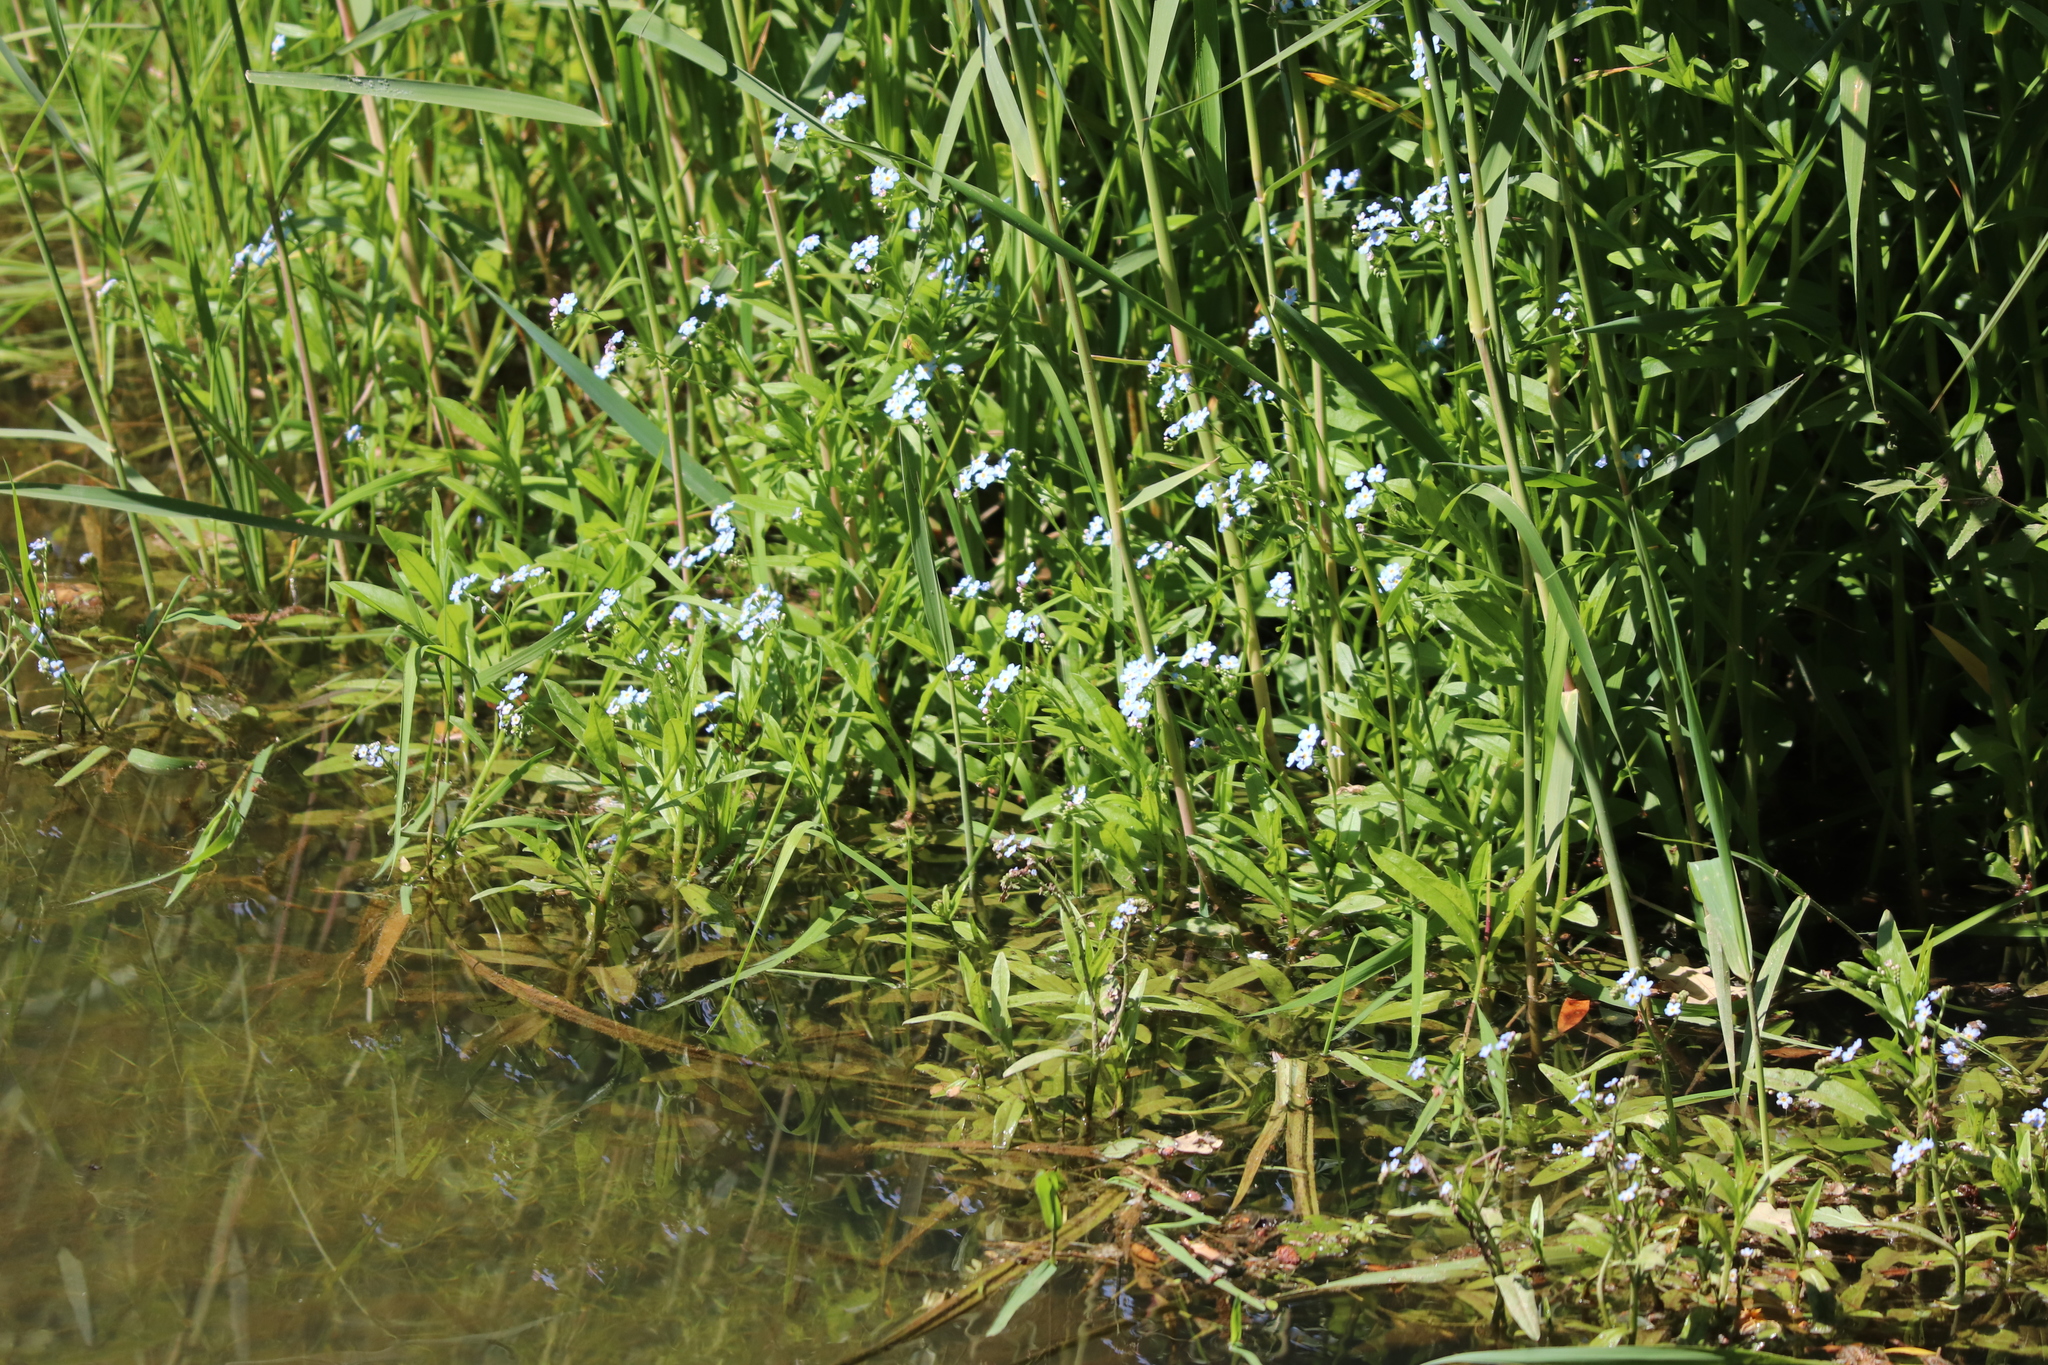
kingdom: Plantae
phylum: Tracheophyta
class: Magnoliopsida
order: Boraginales
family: Boraginaceae
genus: Myosotis
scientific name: Myosotis scorpioides
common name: Water forget-me-not
